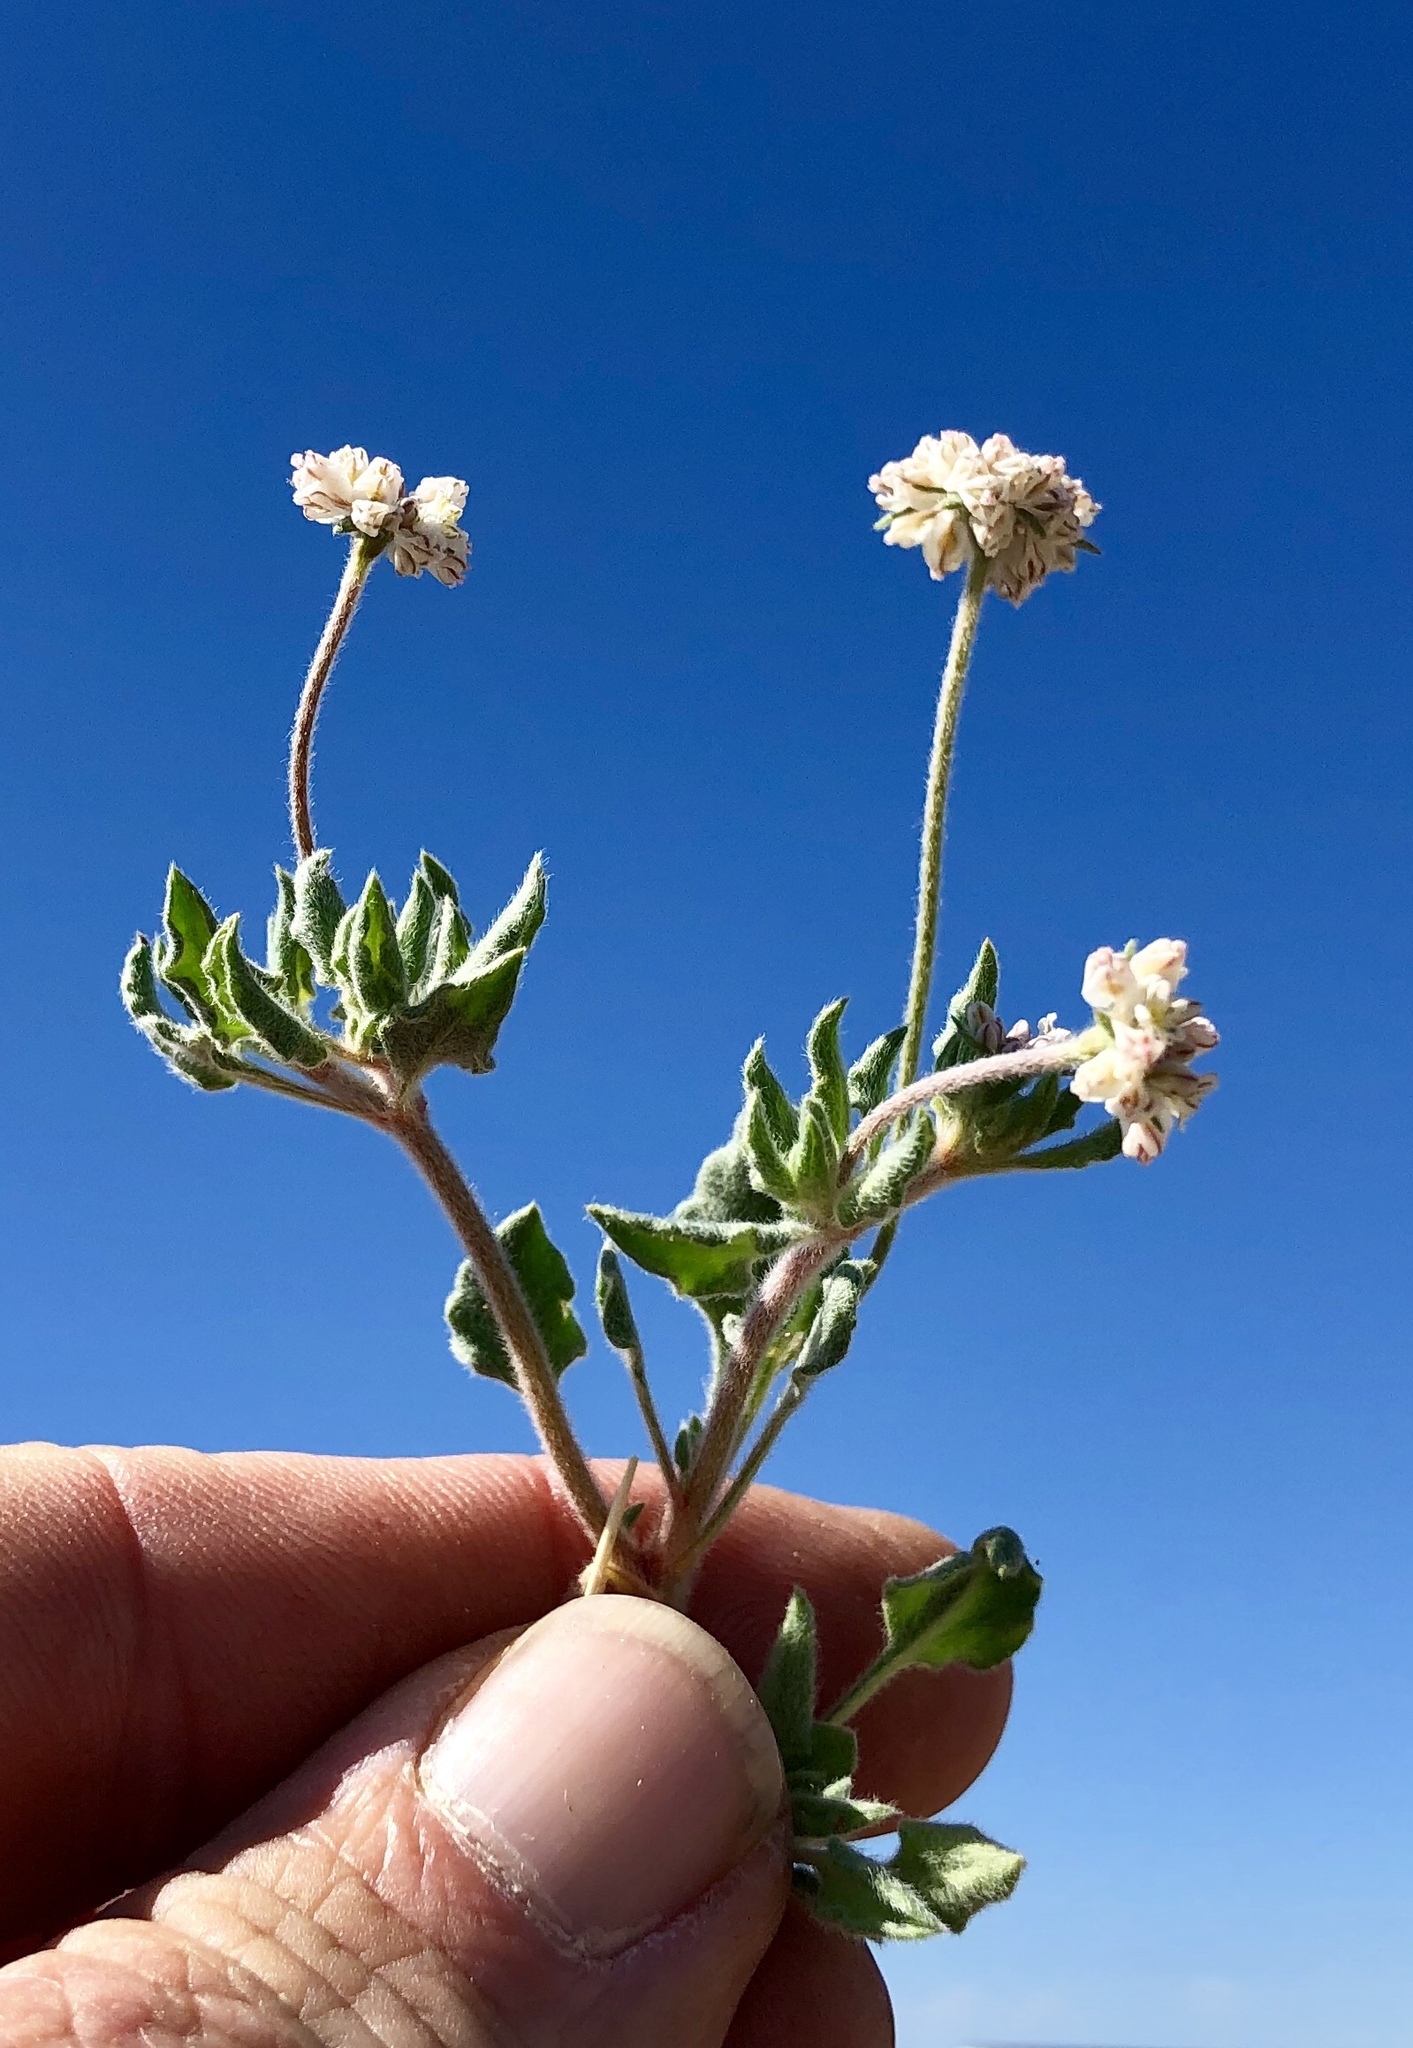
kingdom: Plantae
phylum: Tracheophyta
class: Magnoliopsida
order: Caryophyllales
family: Polygonaceae
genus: Eriogonum
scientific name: Eriogonum abertianum
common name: Abert's wild buckwheat
